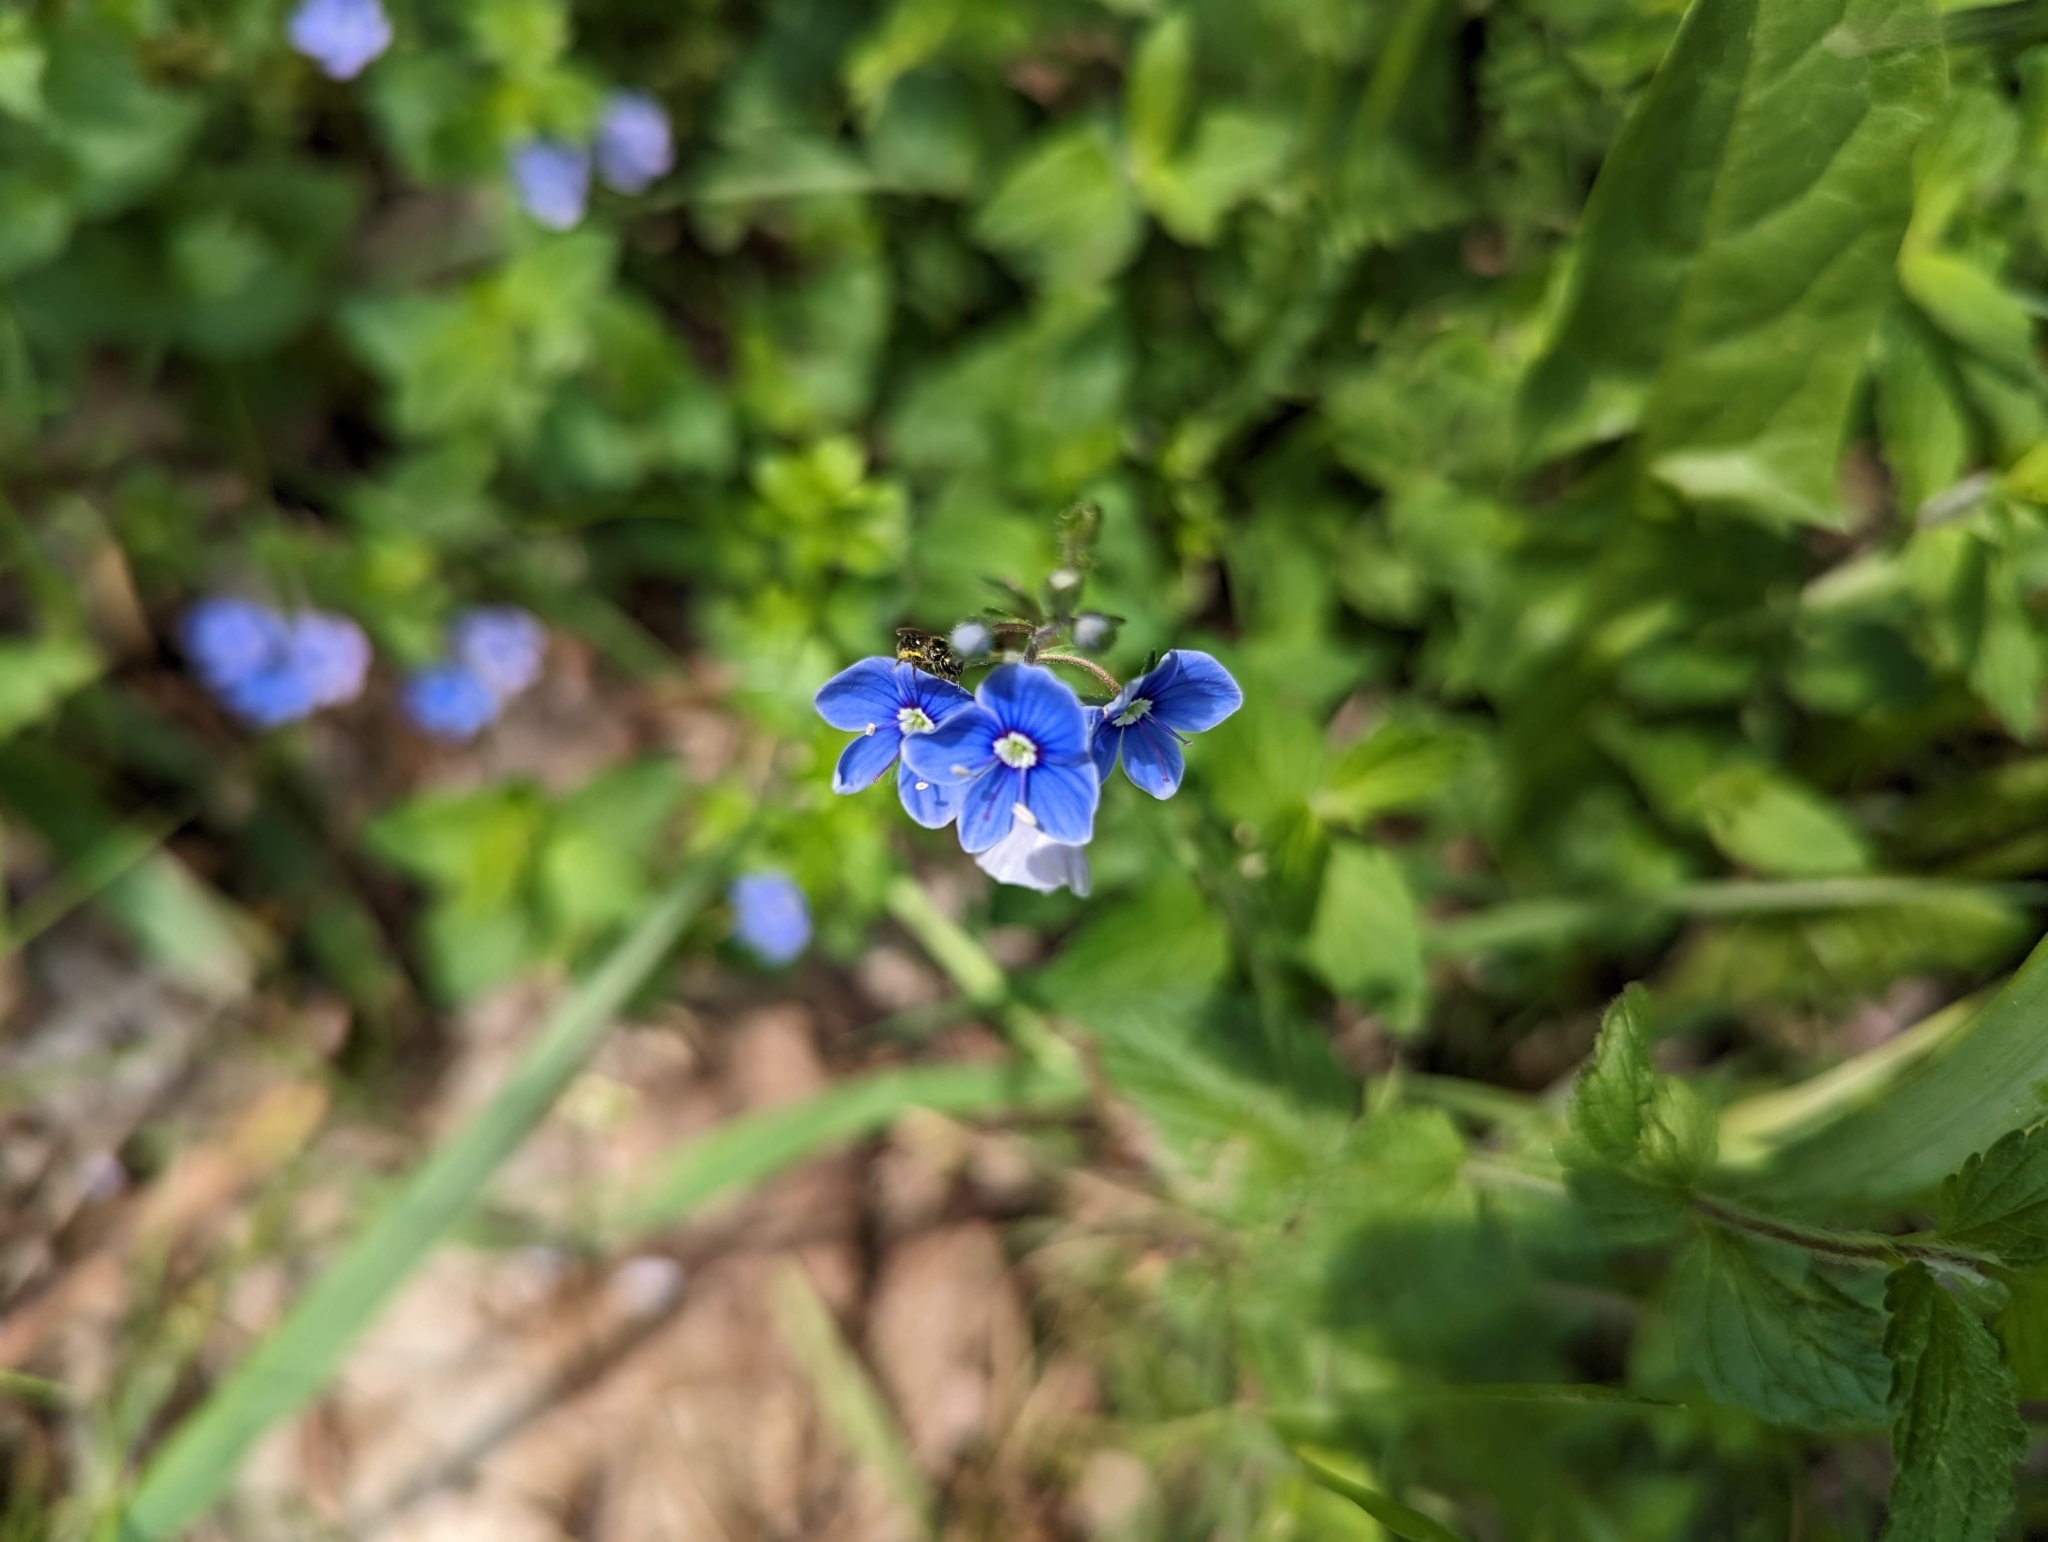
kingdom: Plantae
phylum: Tracheophyta
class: Magnoliopsida
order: Lamiales
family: Plantaginaceae
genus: Veronica
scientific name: Veronica chamaedrys
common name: Germander speedwell
